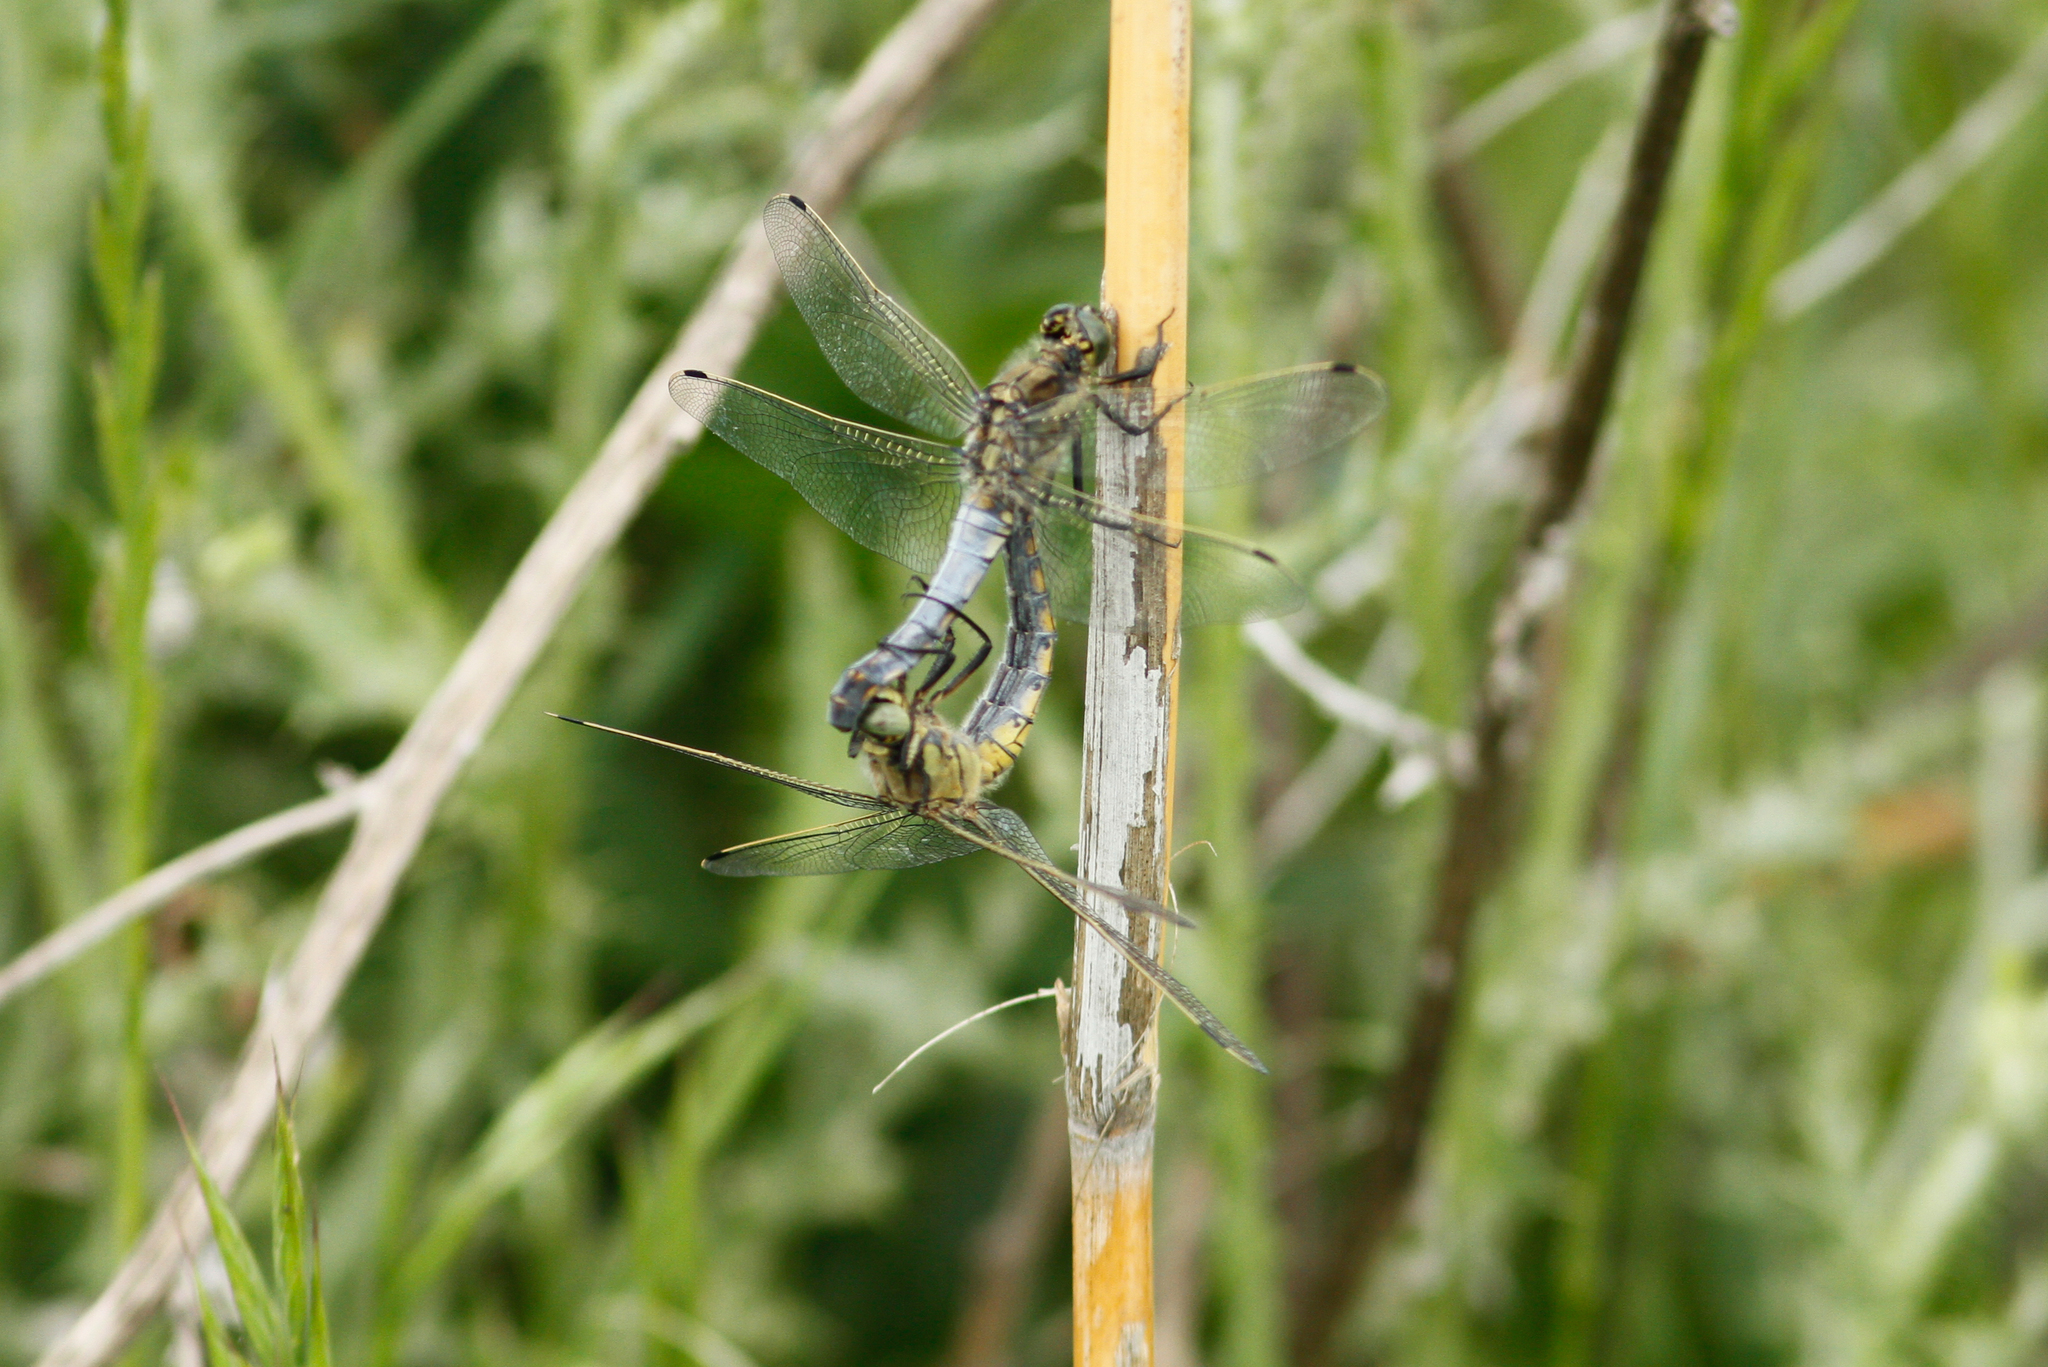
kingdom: Animalia
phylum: Arthropoda
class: Insecta
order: Odonata
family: Libellulidae
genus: Orthetrum
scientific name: Orthetrum cancellatum
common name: Black-tailed skimmer
